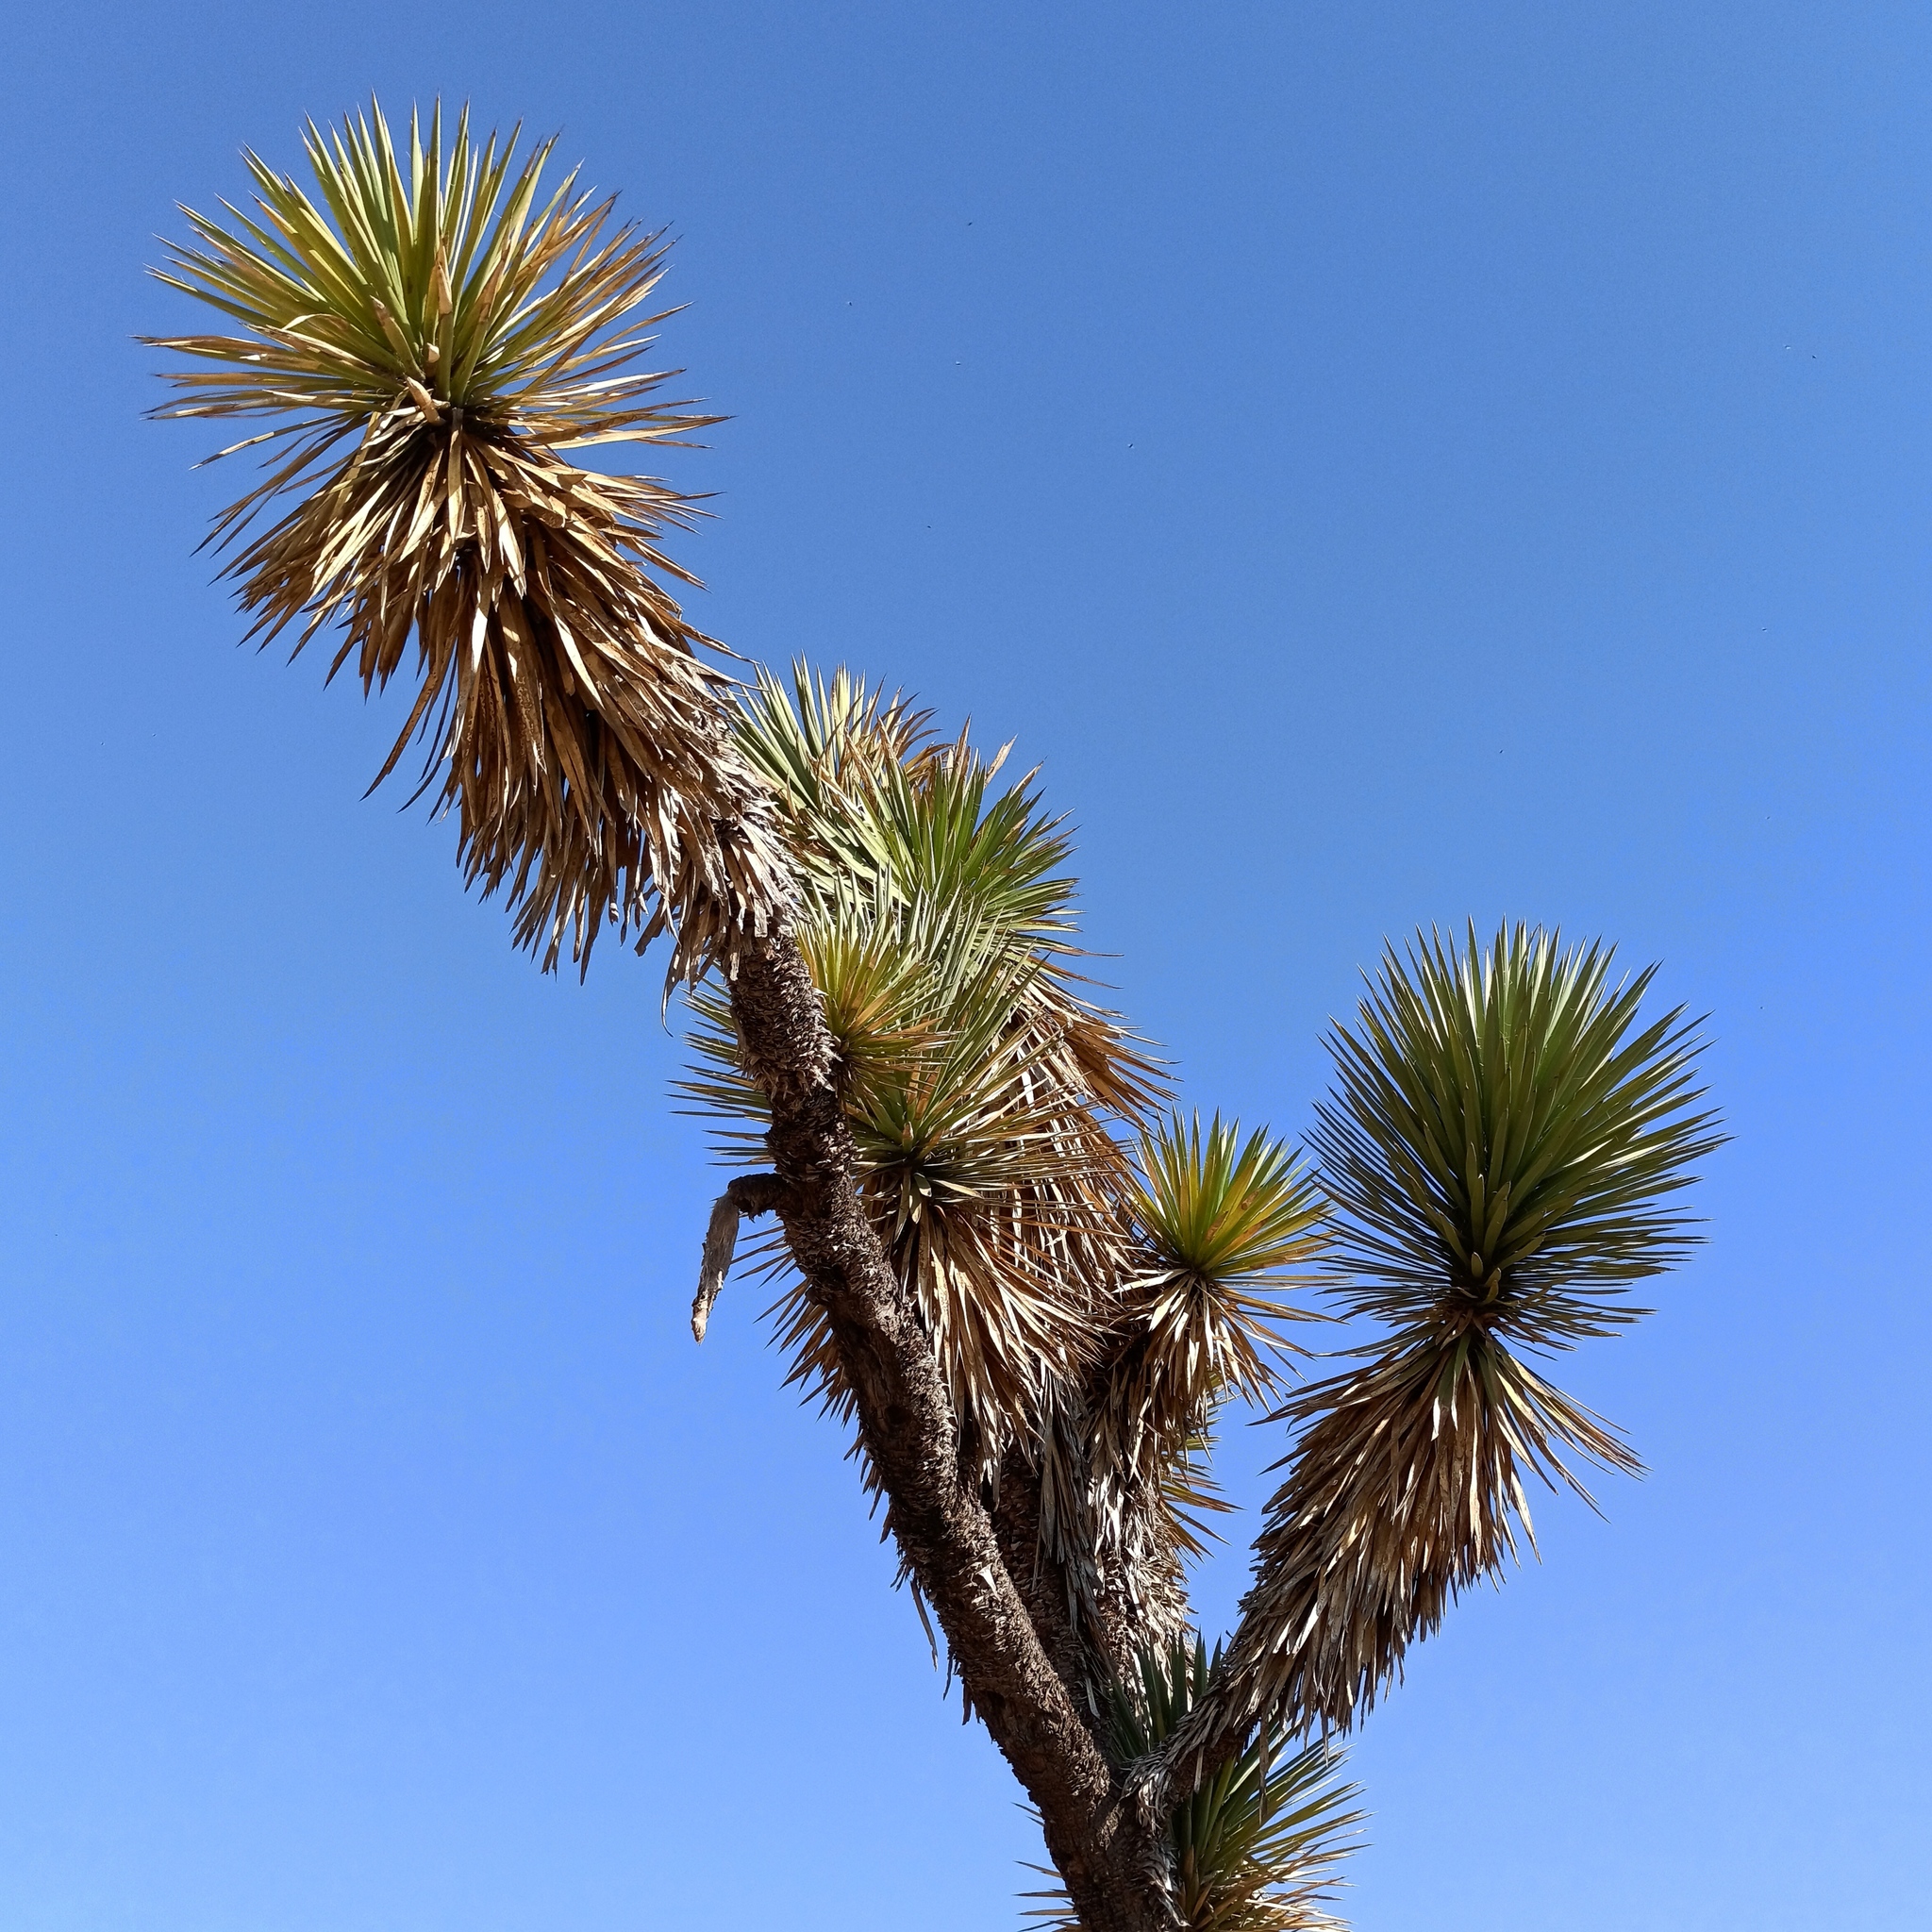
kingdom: Plantae
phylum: Tracheophyta
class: Liliopsida
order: Asparagales
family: Asparagaceae
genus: Yucca
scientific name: Yucca filifera
